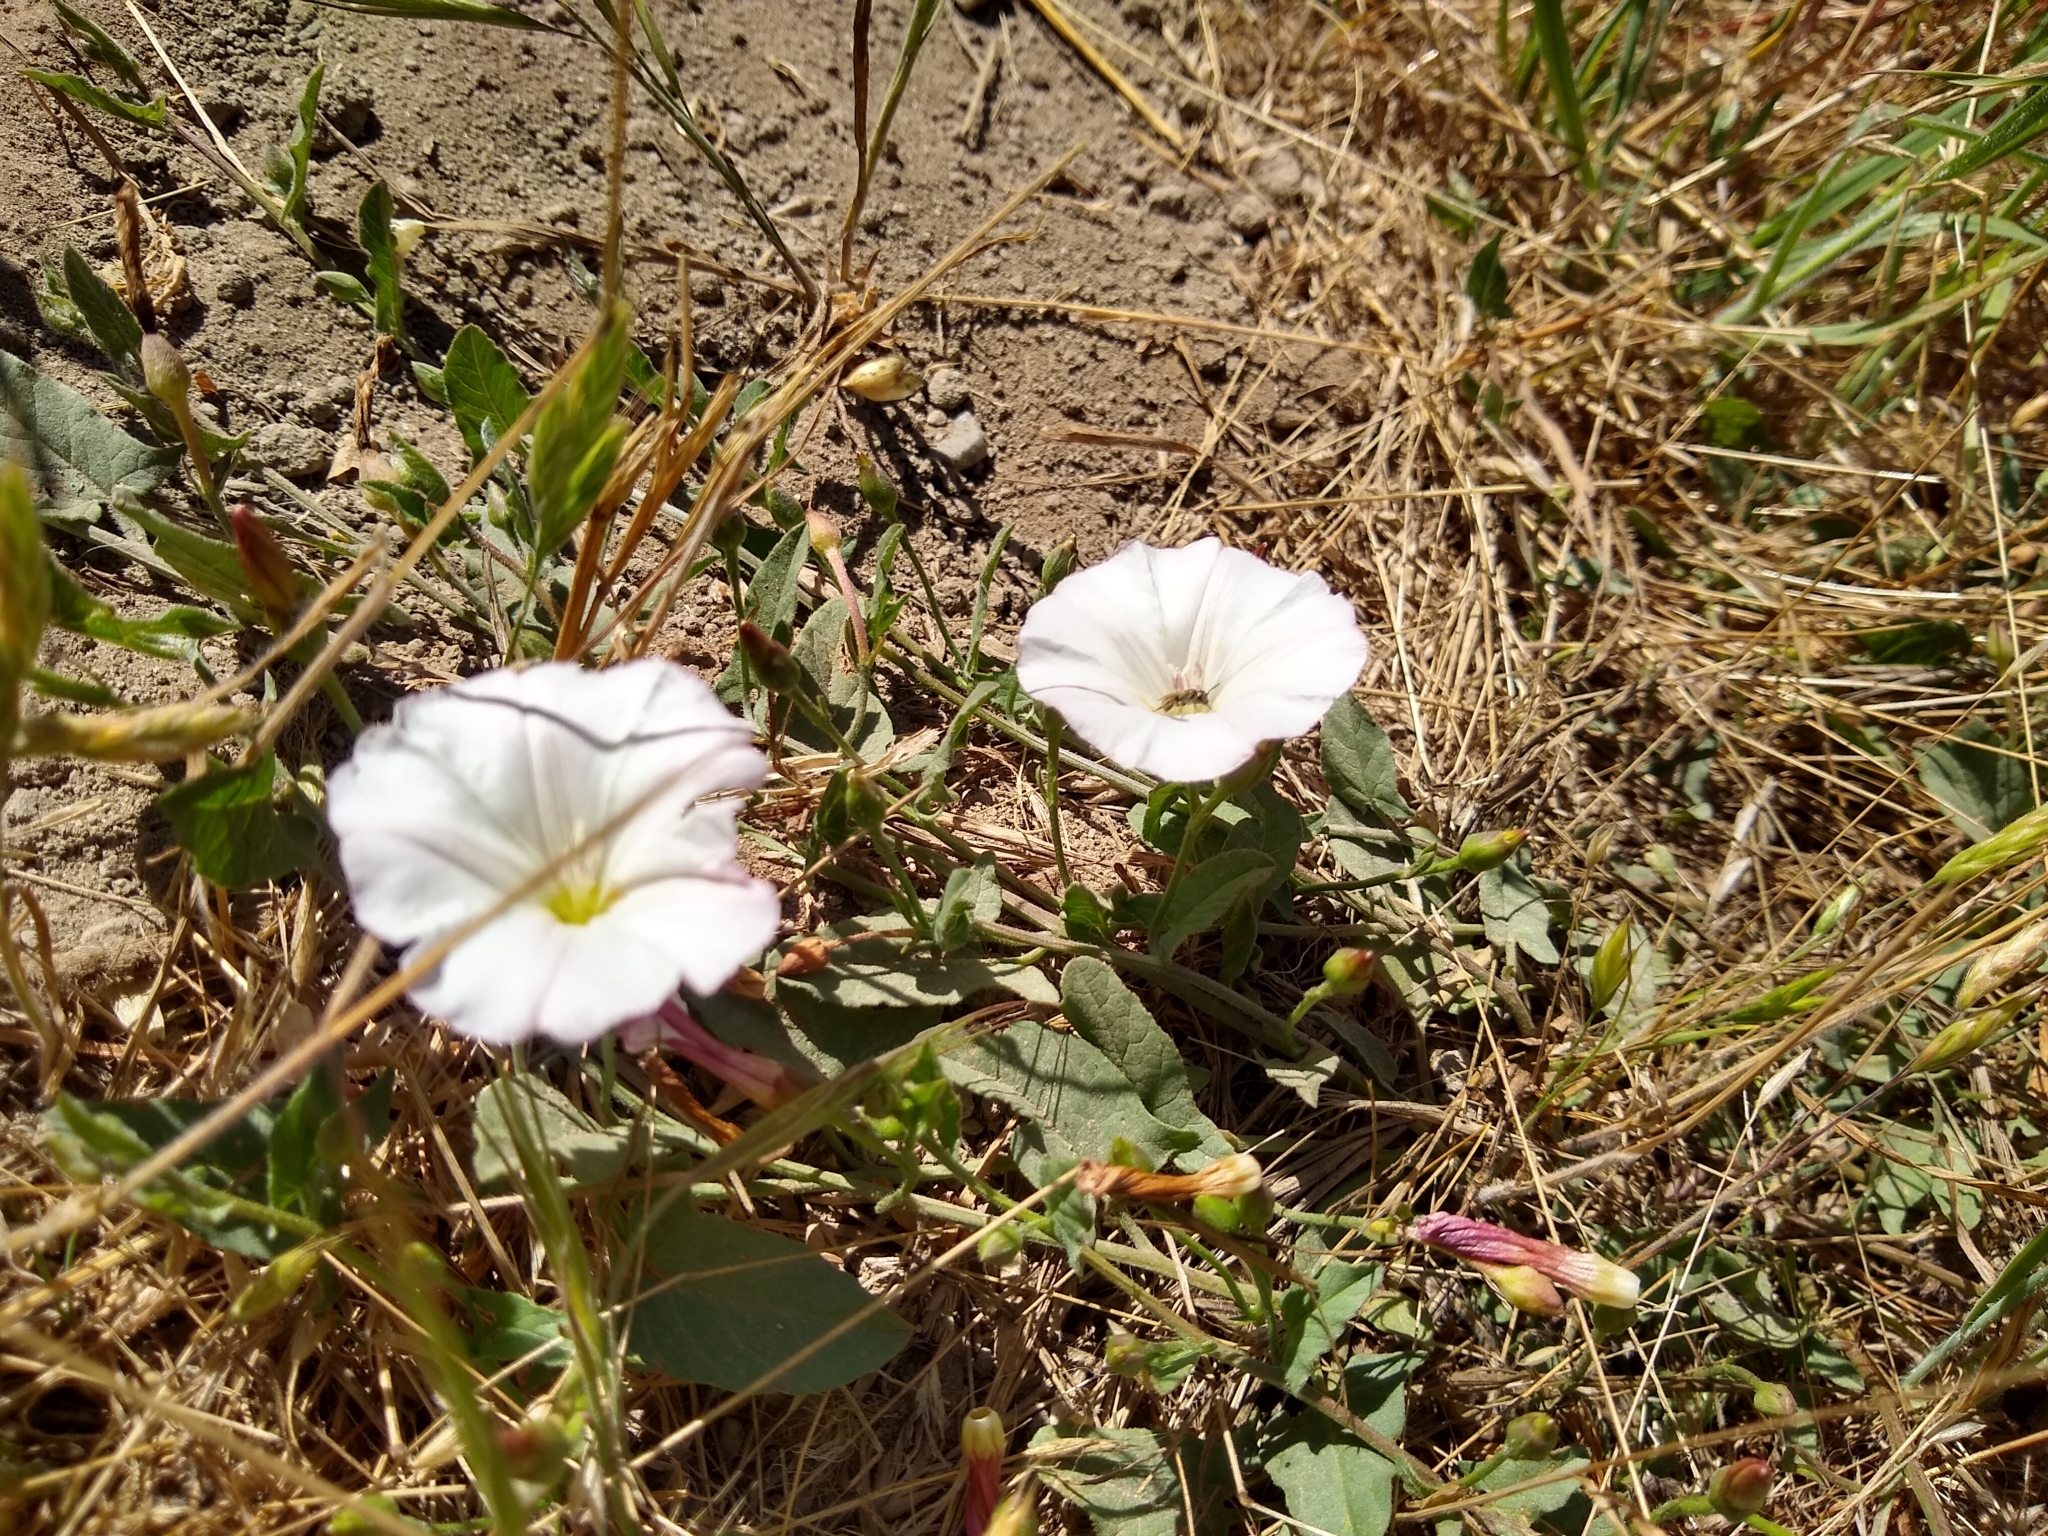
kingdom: Plantae
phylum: Tracheophyta
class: Magnoliopsida
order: Solanales
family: Convolvulaceae
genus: Convolvulus
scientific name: Convolvulus arvensis
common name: Field bindweed
